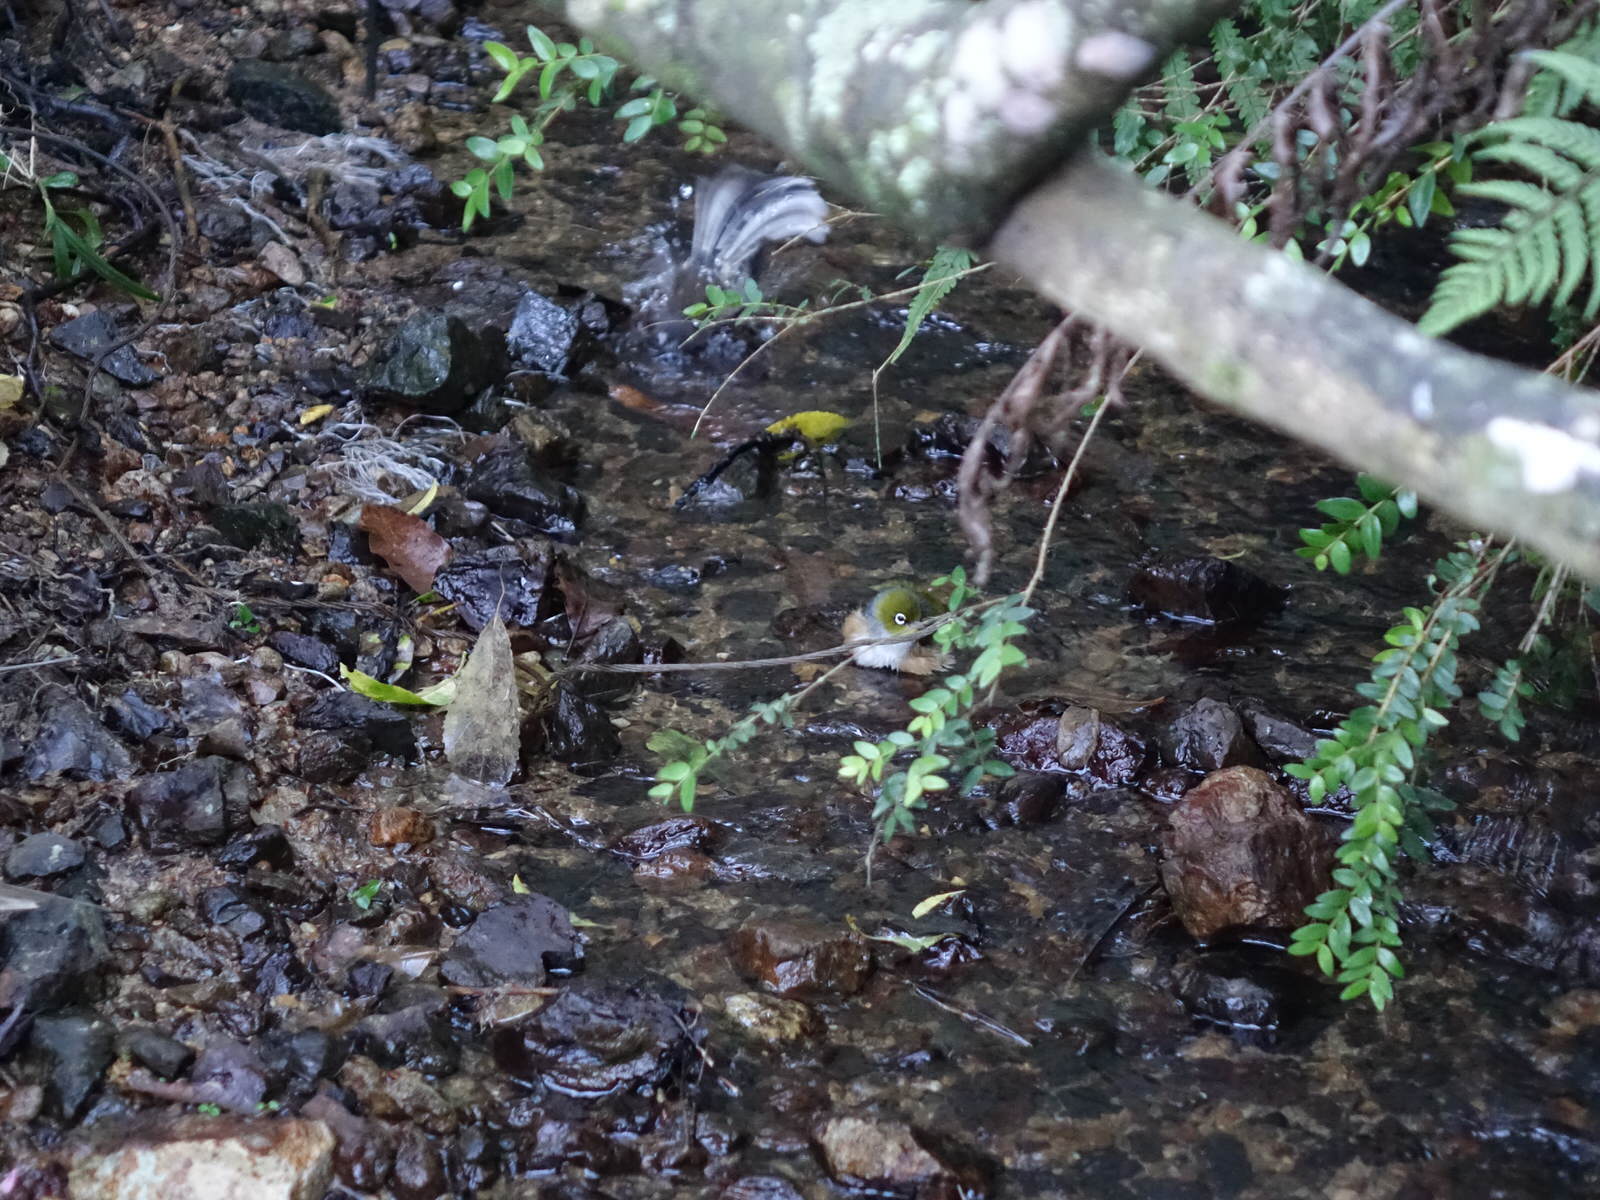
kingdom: Animalia
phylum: Chordata
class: Aves
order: Passeriformes
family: Zosteropidae
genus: Zosterops
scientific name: Zosterops lateralis
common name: Silvereye
